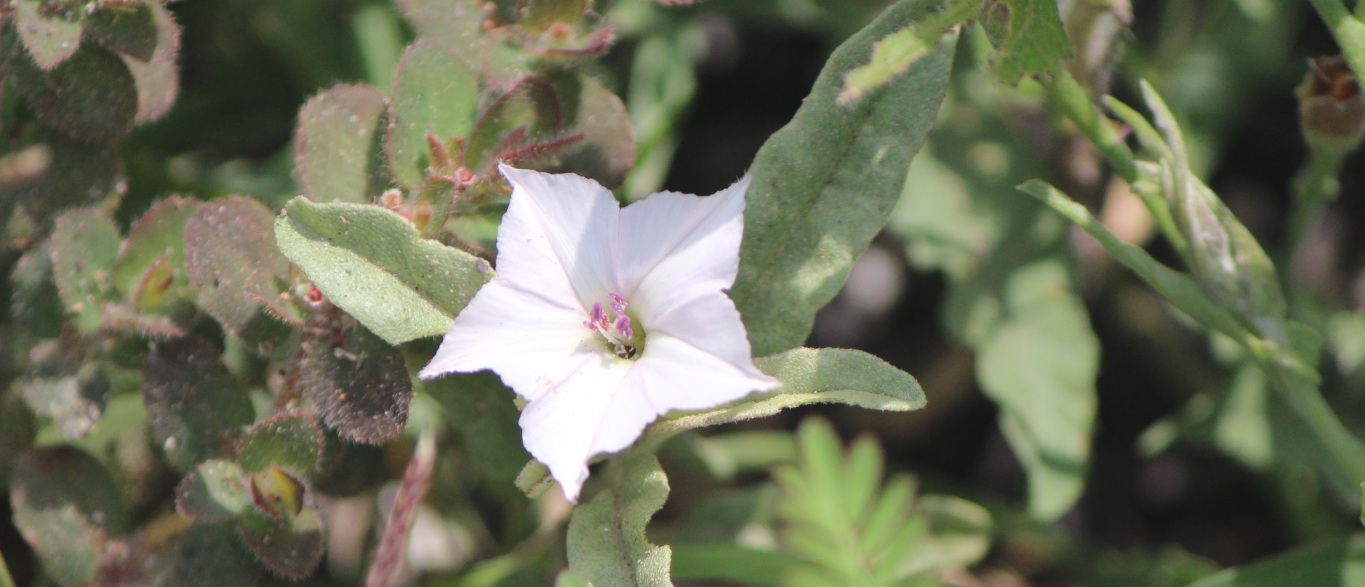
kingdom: Plantae
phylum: Tracheophyta
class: Magnoliopsida
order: Solanales
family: Convolvulaceae
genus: Convolvulus
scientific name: Convolvulus equitans
